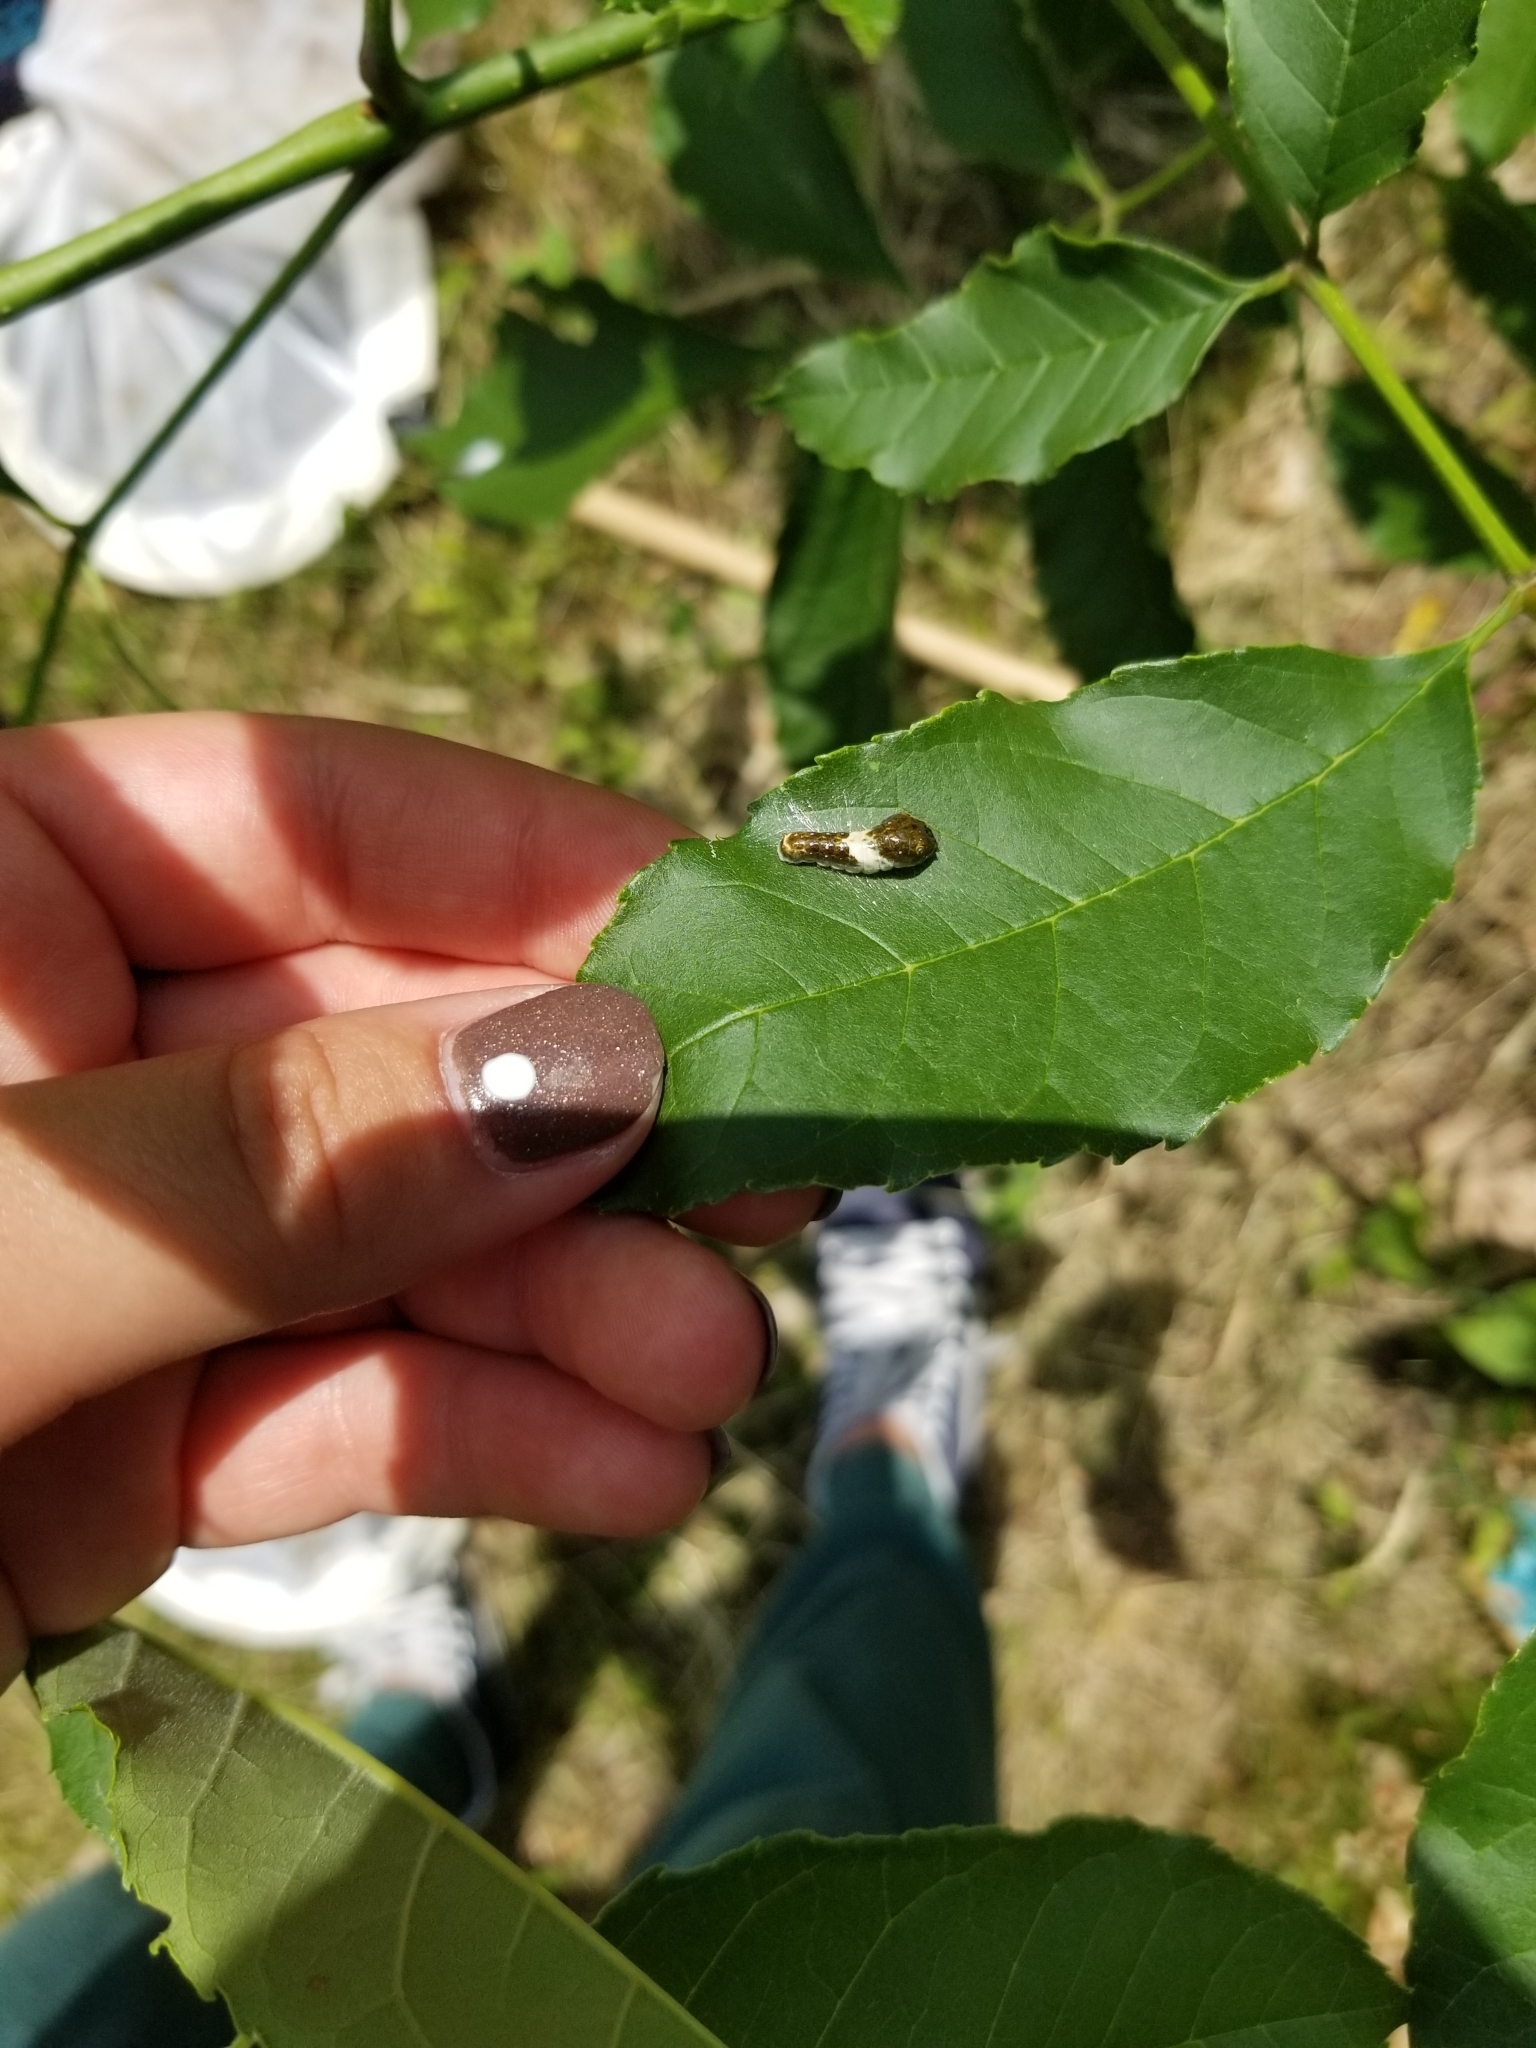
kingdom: Animalia
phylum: Arthropoda
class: Insecta
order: Lepidoptera
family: Papilionidae
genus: Papilio
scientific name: Papilio glaucus
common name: Tiger swallowtail
